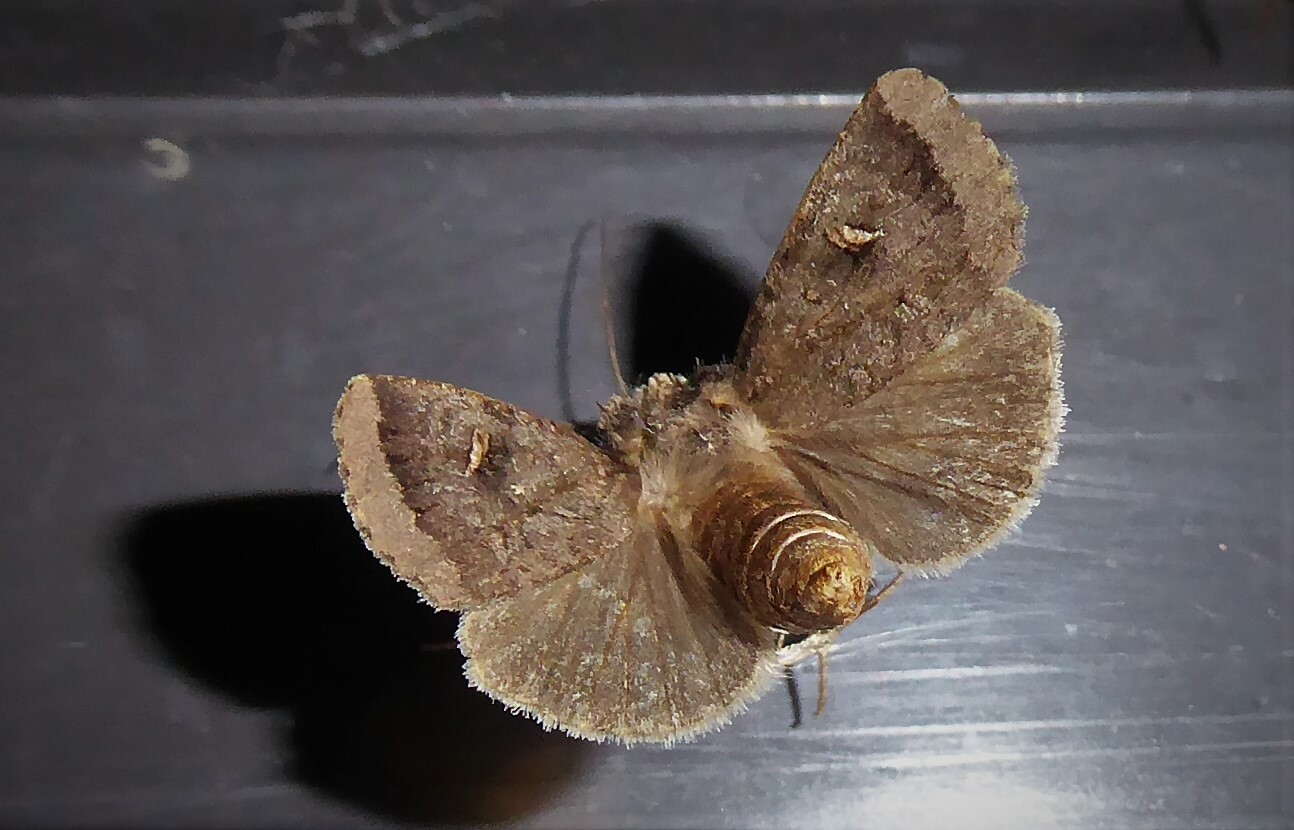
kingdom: Animalia
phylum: Arthropoda
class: Insecta
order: Lepidoptera
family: Noctuidae
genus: Proteuxoa
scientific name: Proteuxoa tetronycha
